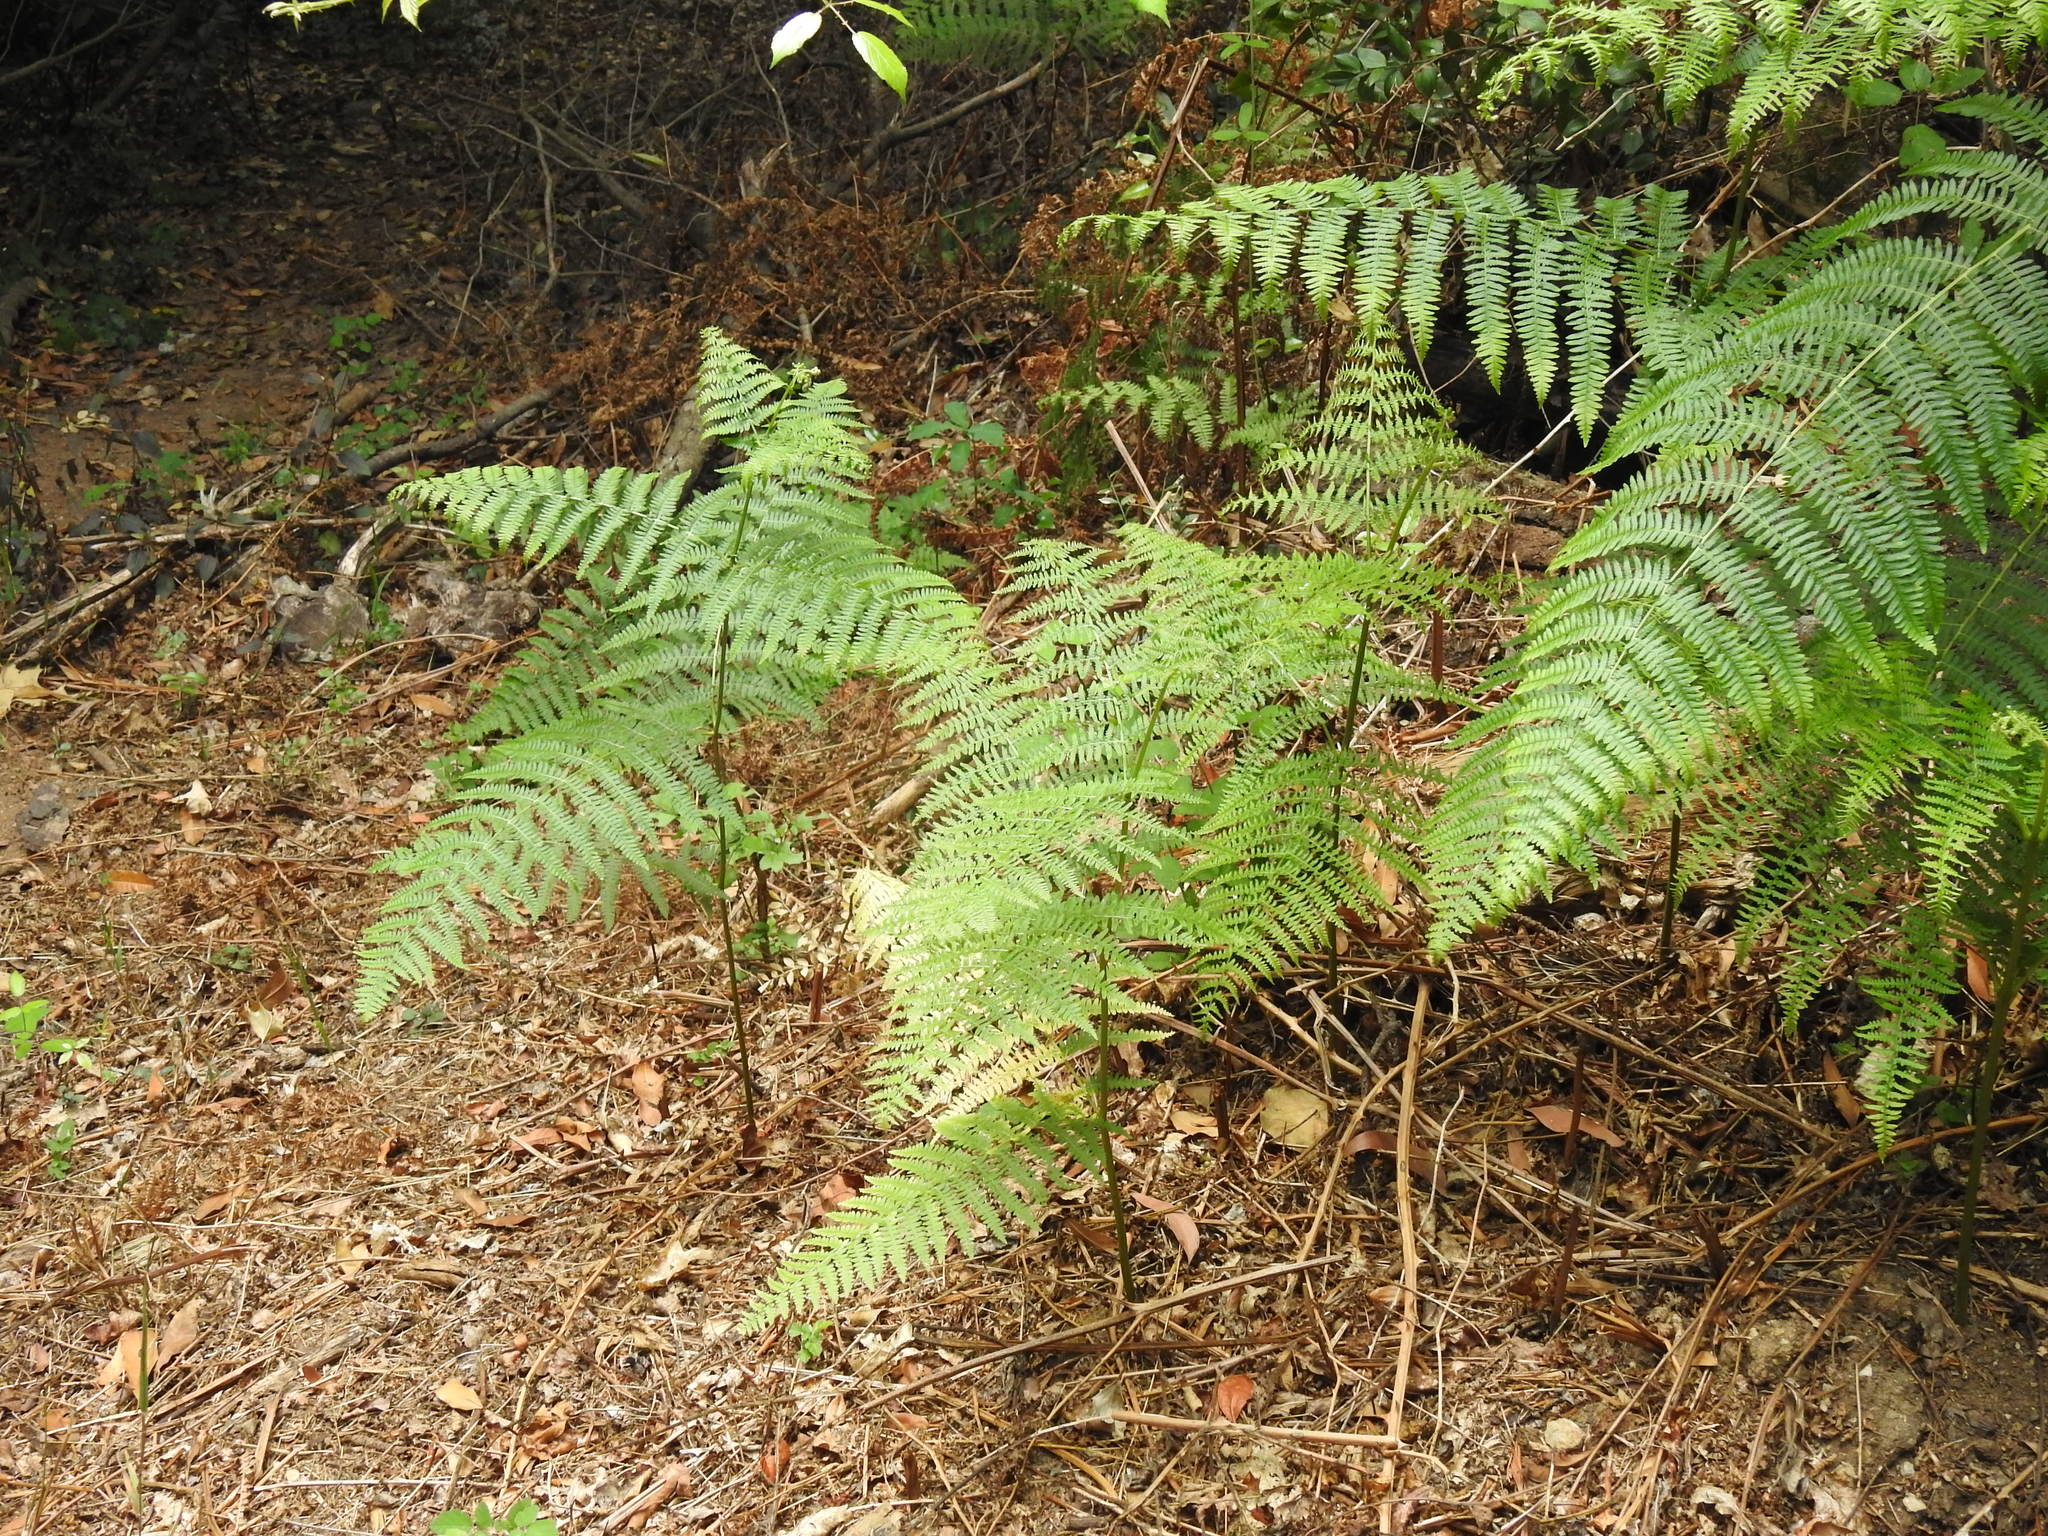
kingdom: Plantae
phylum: Tracheophyta
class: Polypodiopsida
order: Polypodiales
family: Dennstaedtiaceae
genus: Pteridium
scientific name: Pteridium aquilinum
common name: Bracken
